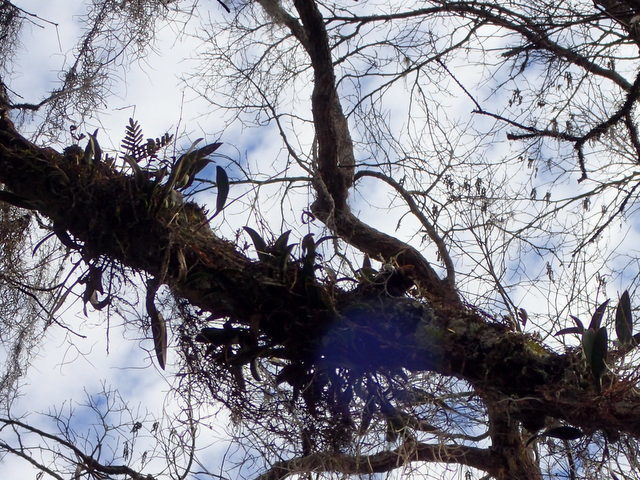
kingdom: Plantae
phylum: Tracheophyta
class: Liliopsida
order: Asparagales
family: Orchidaceae
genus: Epidendrum
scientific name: Epidendrum conopseum
